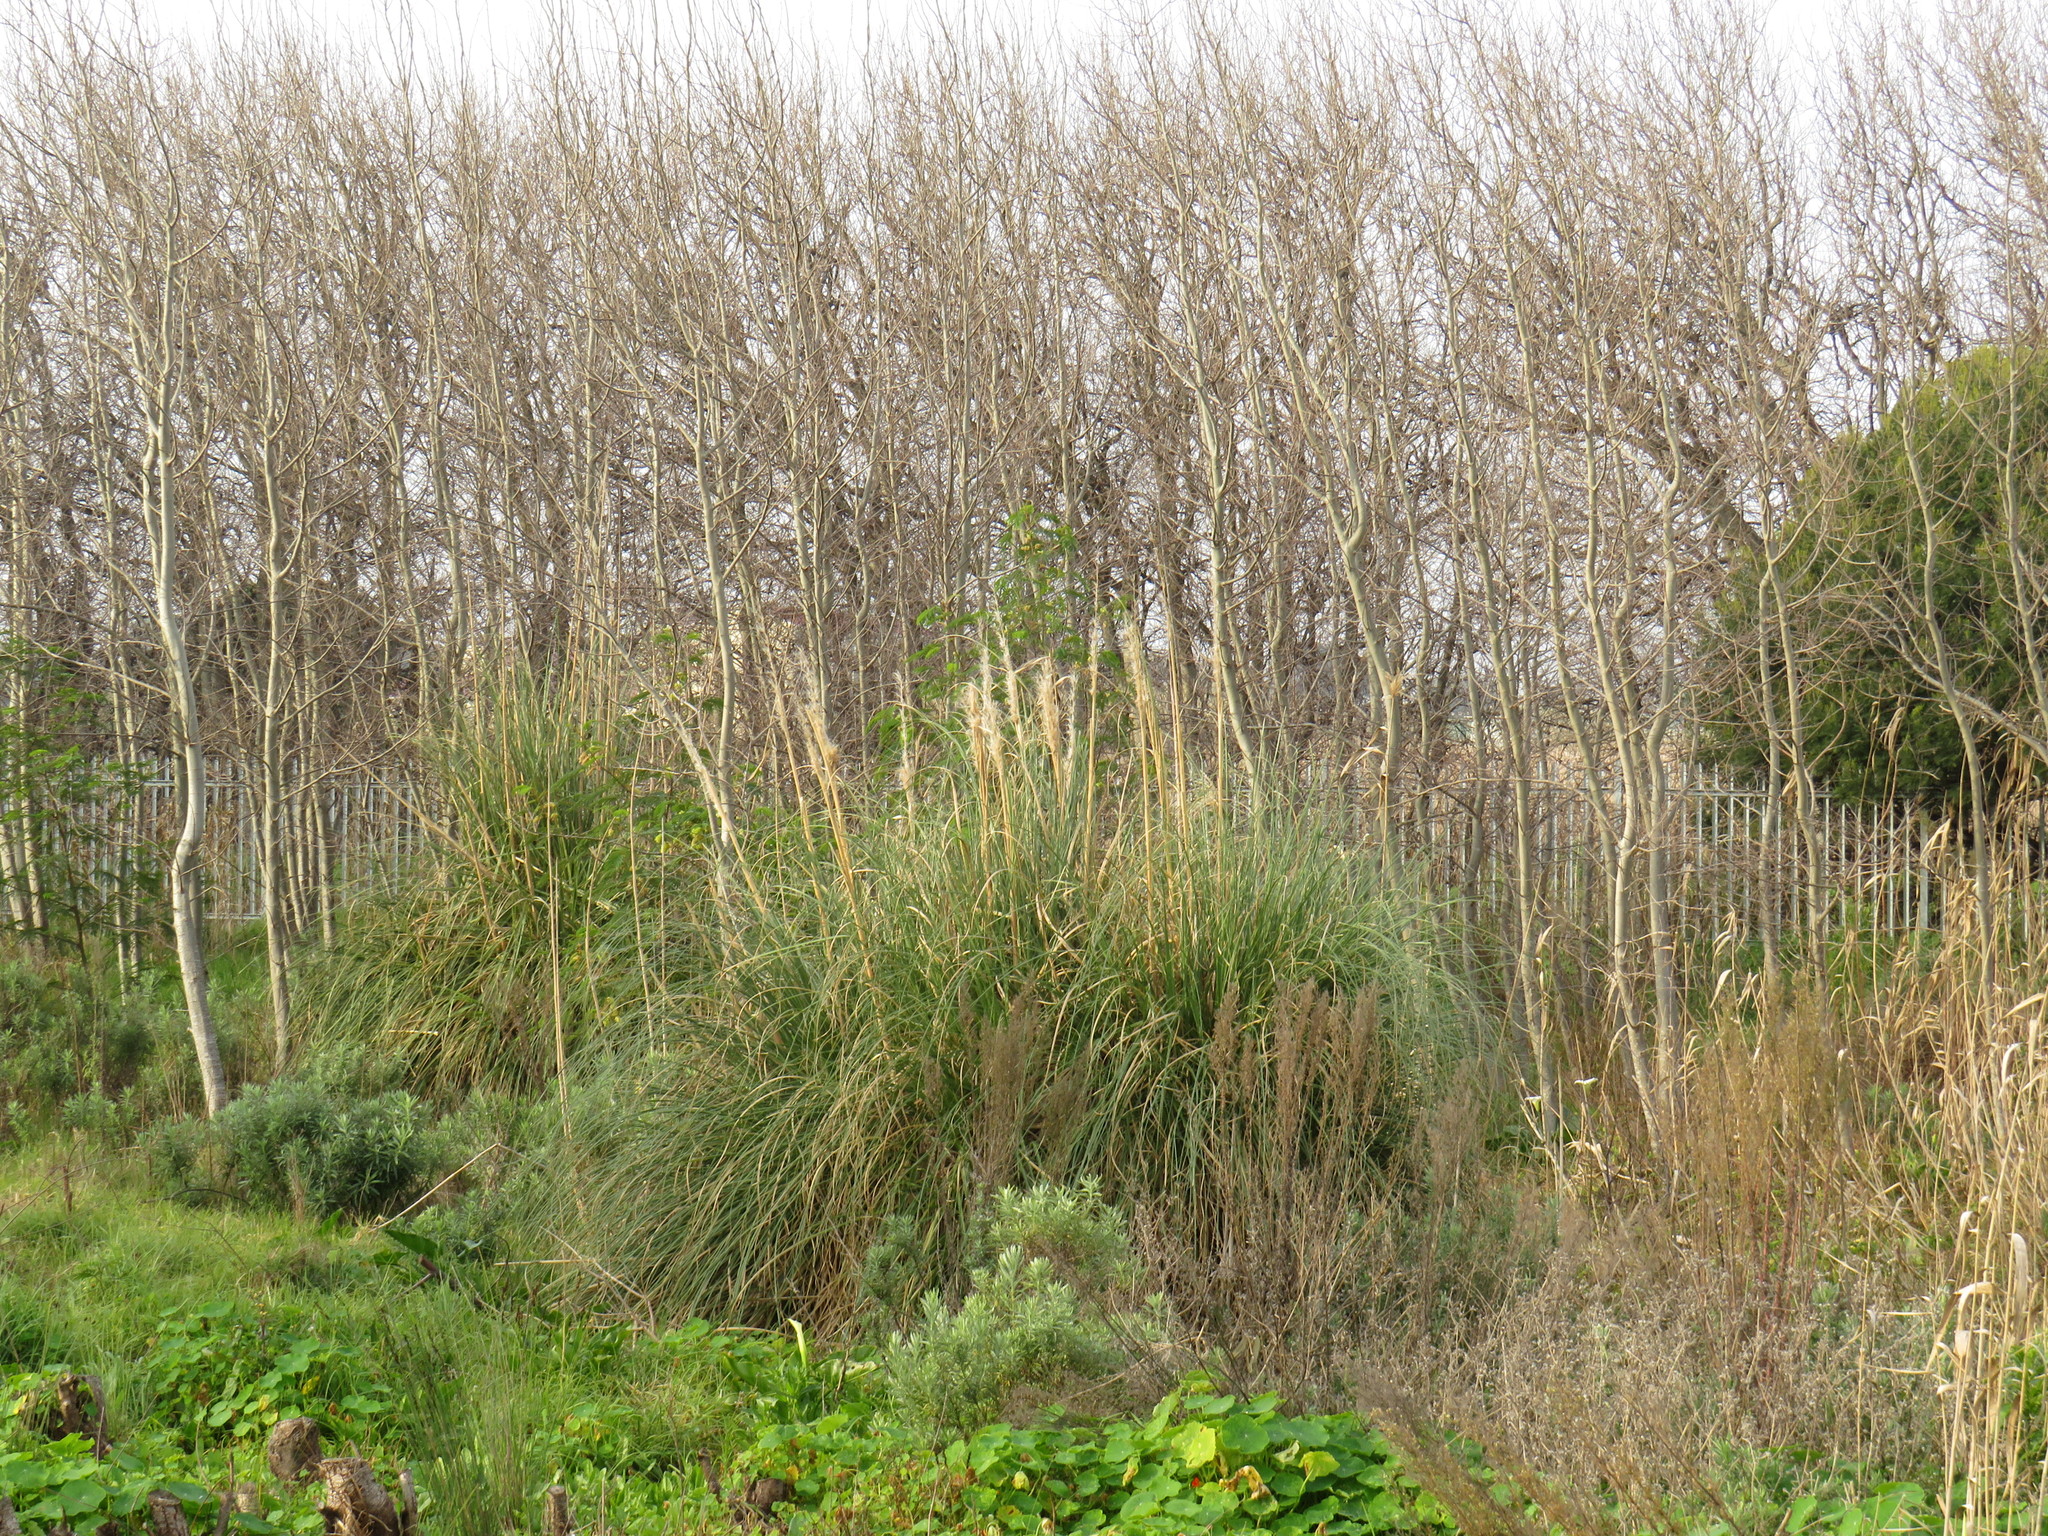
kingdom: Plantae
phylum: Tracheophyta
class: Liliopsida
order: Poales
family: Poaceae
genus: Cortaderia
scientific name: Cortaderia selloana
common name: Uruguayan pampas grass
